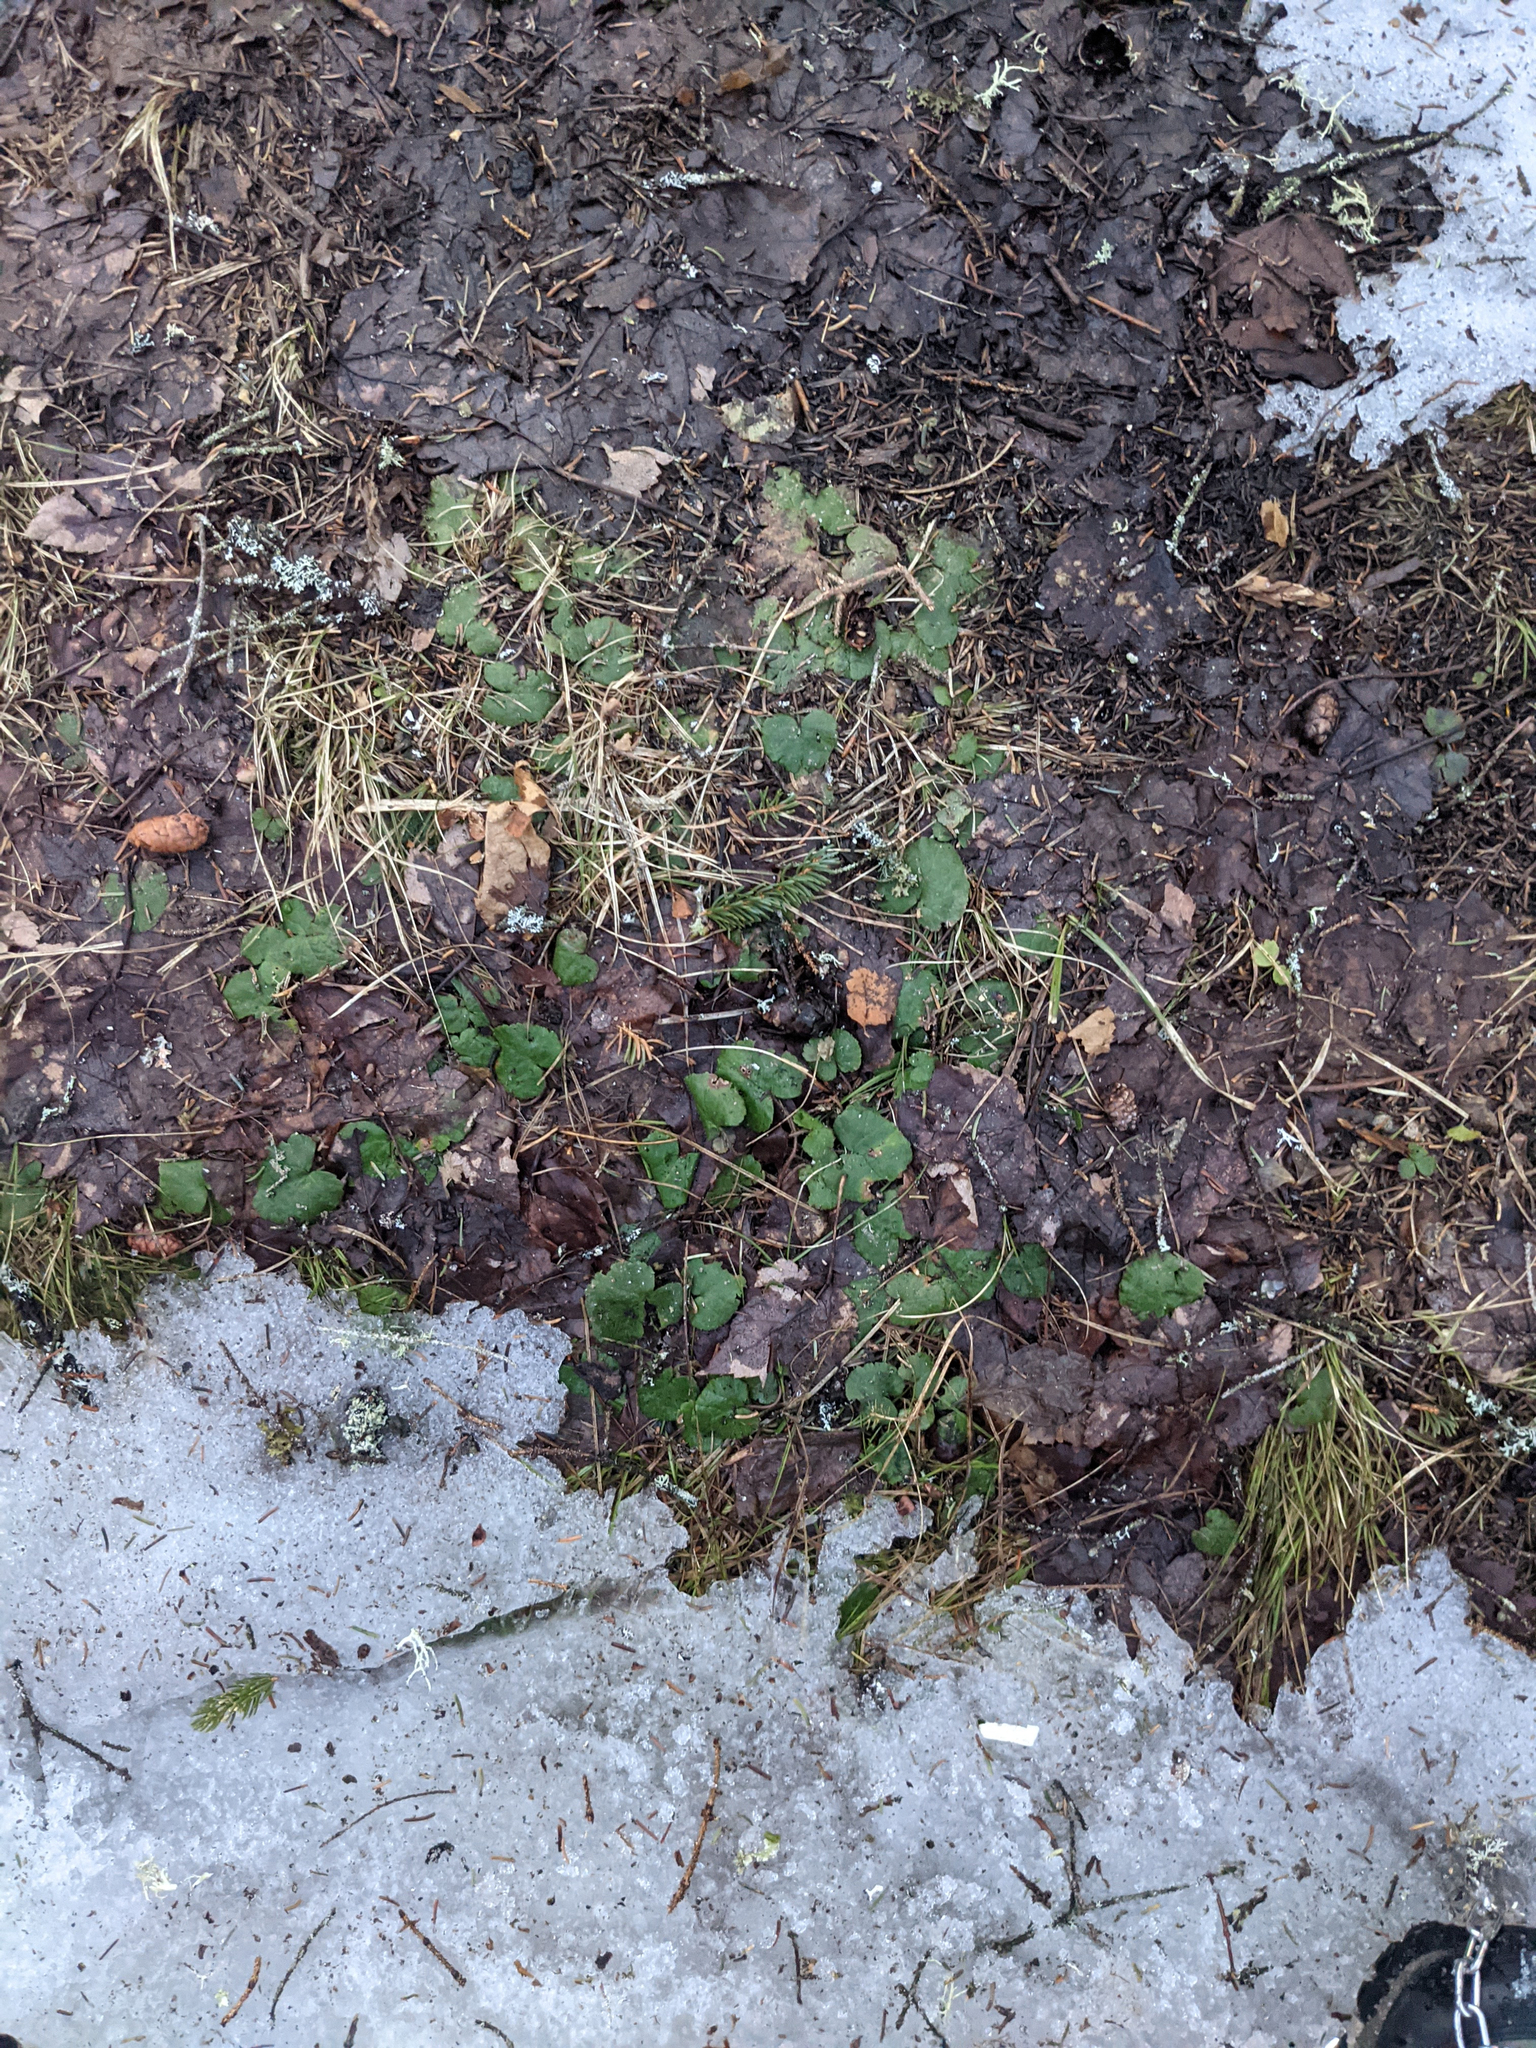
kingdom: Plantae
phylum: Tracheophyta
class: Magnoliopsida
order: Rosales
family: Rosaceae
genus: Dalibarda
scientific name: Dalibarda repens
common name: Dewdrop
